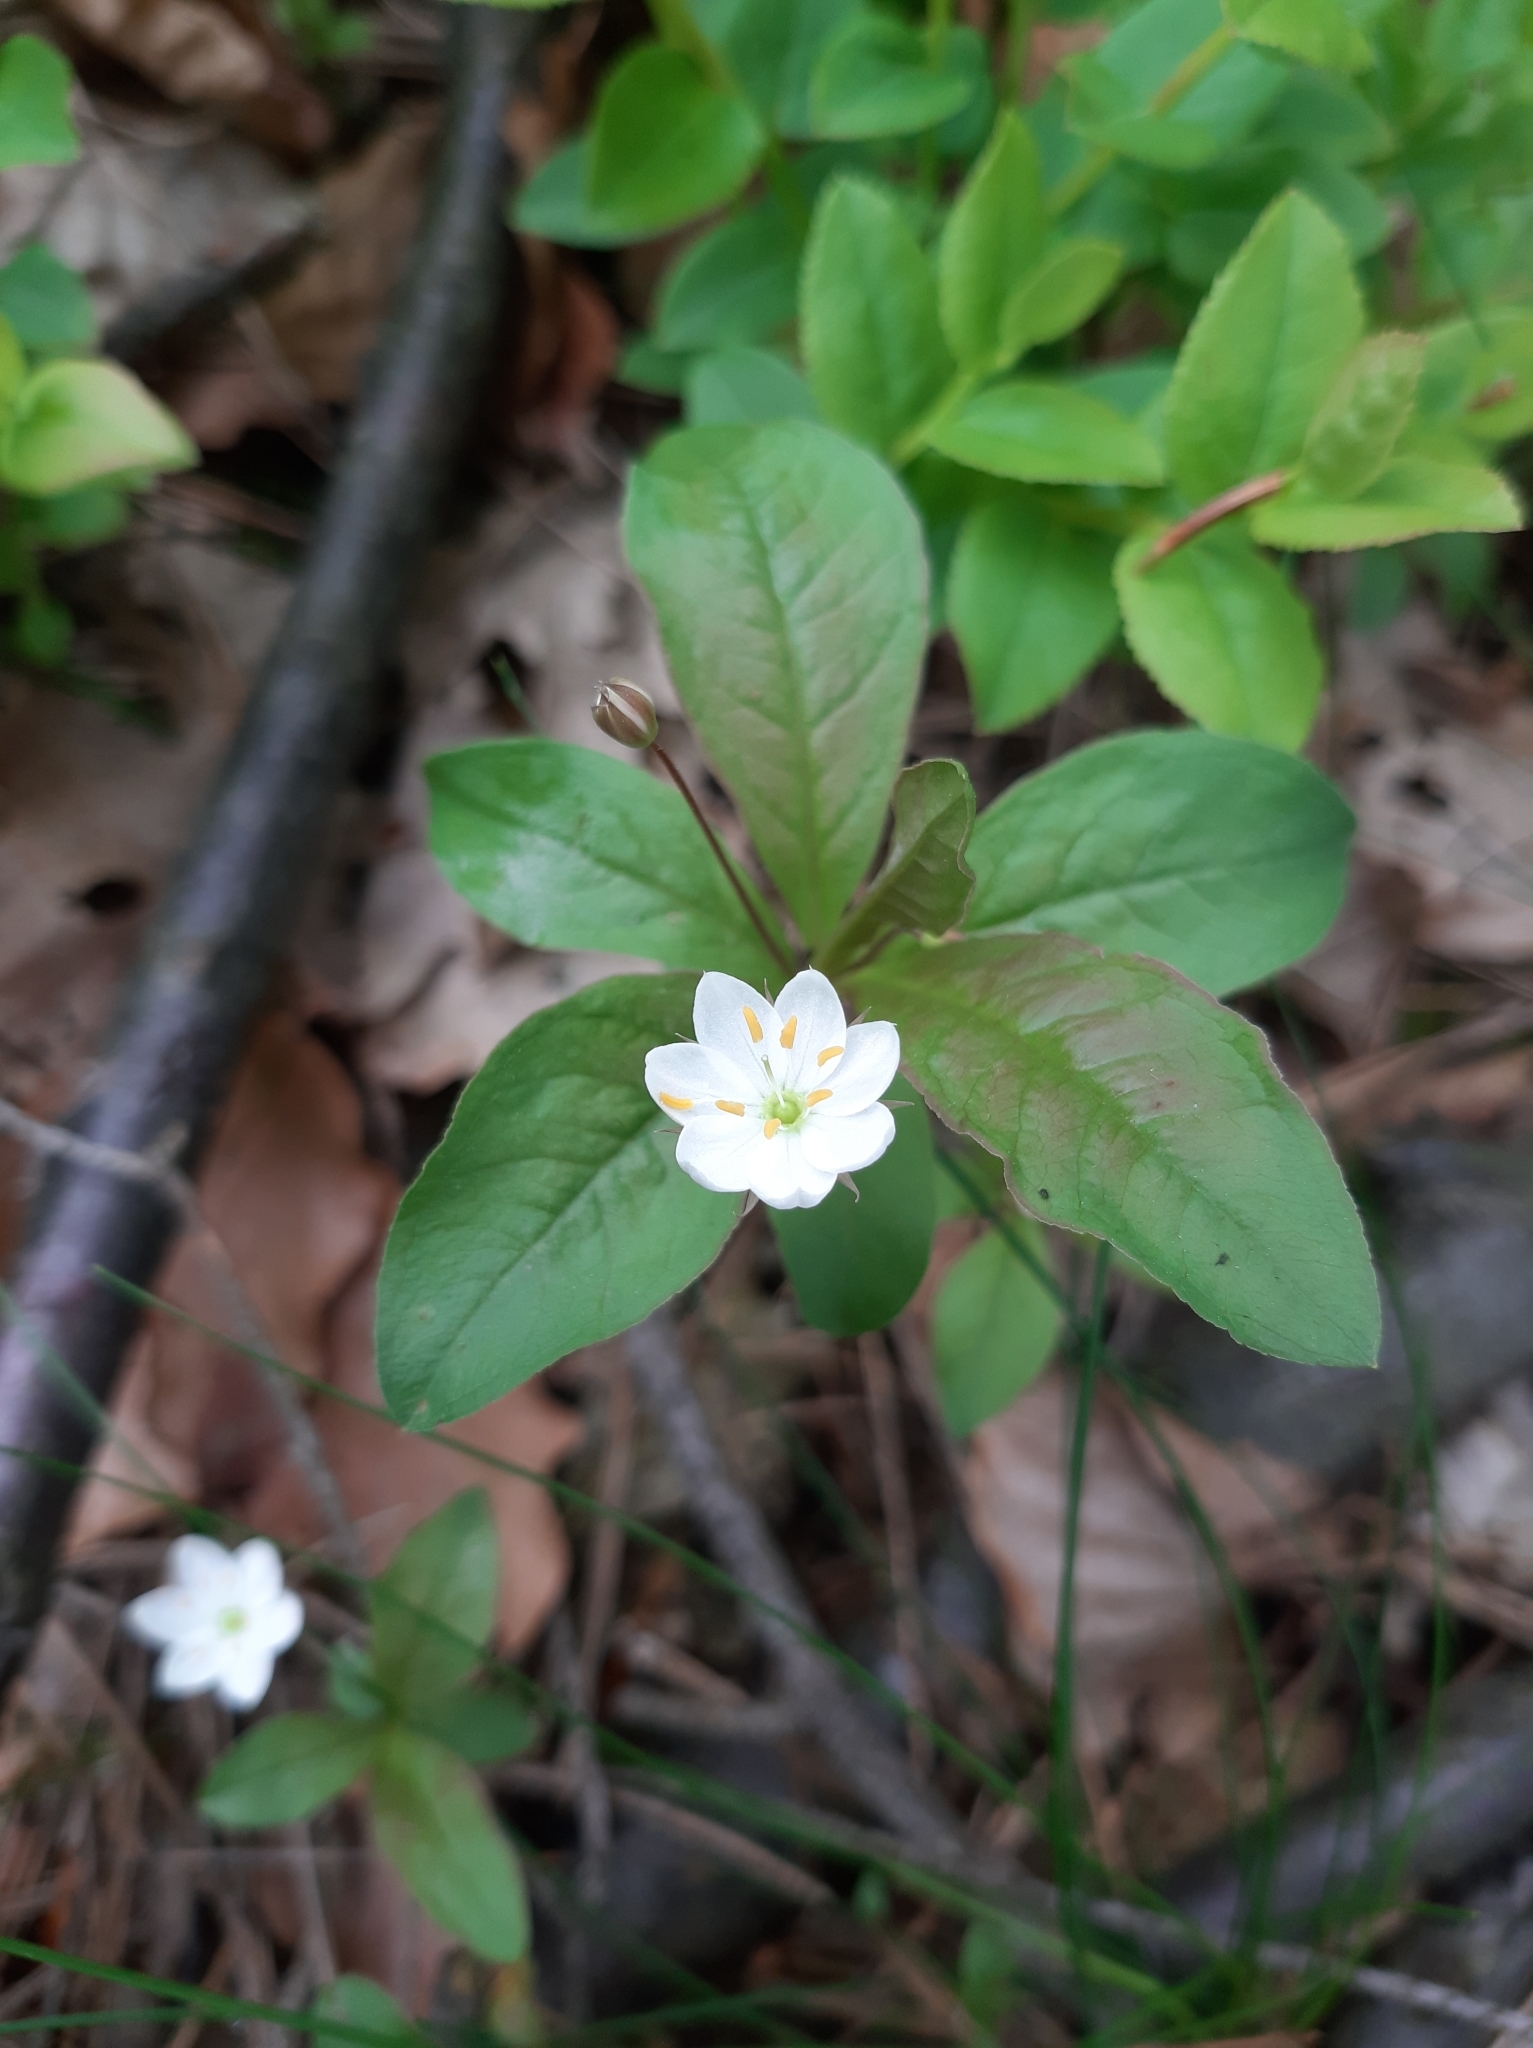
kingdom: Plantae
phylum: Tracheophyta
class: Magnoliopsida
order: Ericales
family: Primulaceae
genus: Lysimachia
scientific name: Lysimachia europaea
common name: Arctic starflower
